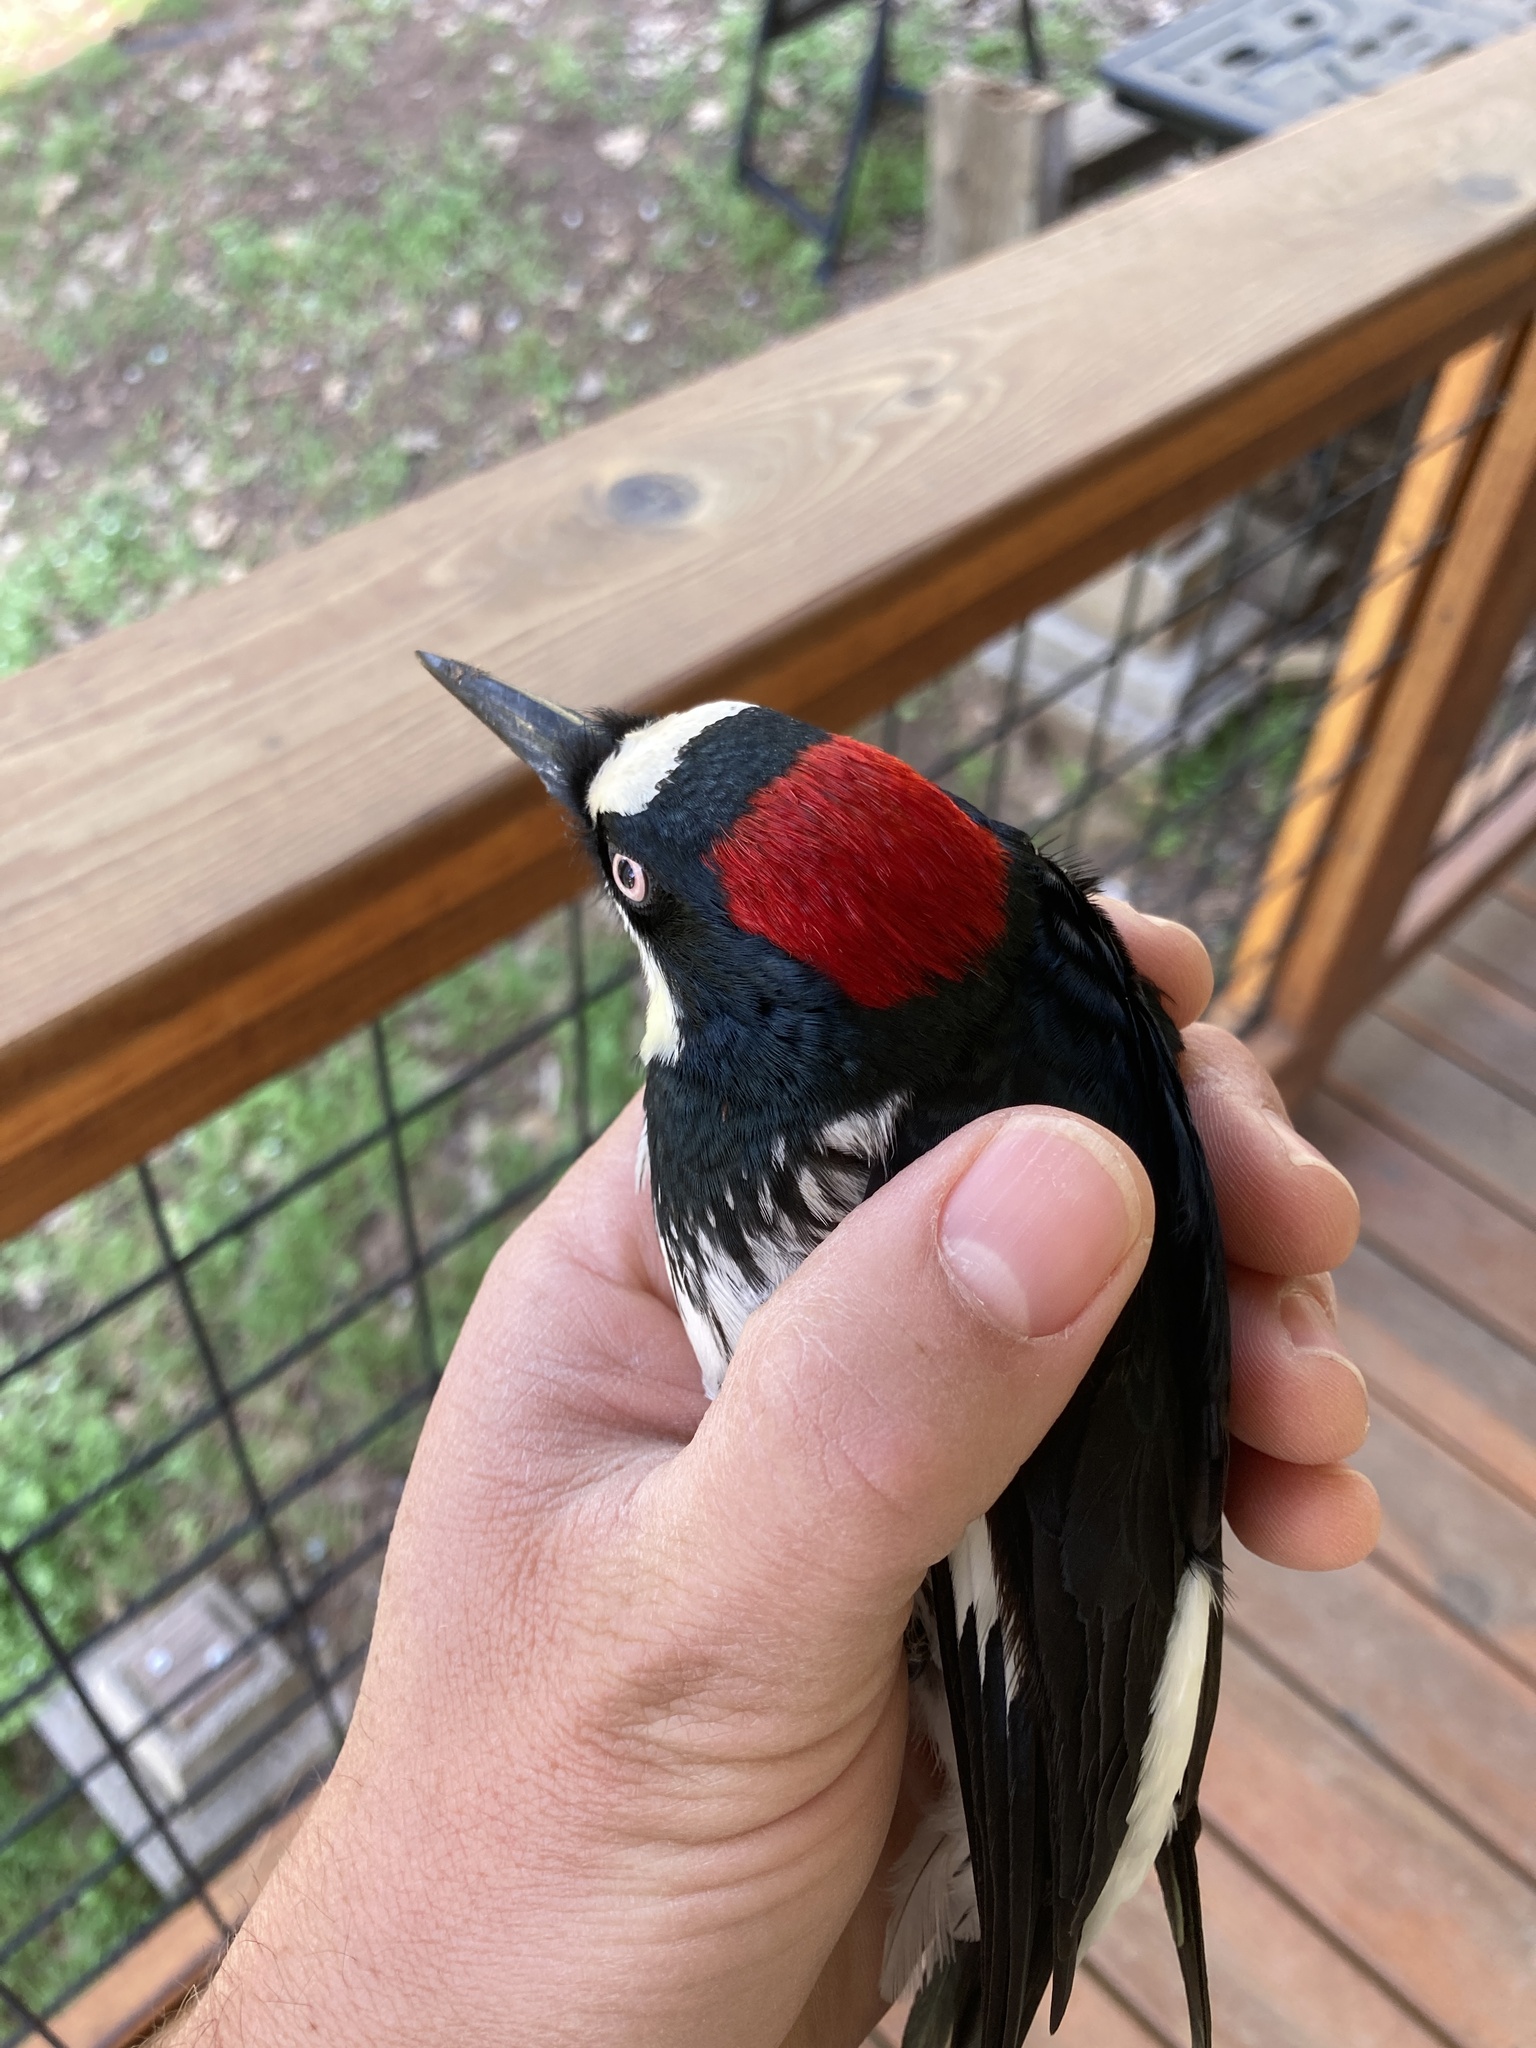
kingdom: Animalia
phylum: Chordata
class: Aves
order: Piciformes
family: Picidae
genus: Melanerpes
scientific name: Melanerpes formicivorus
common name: Acorn woodpecker
